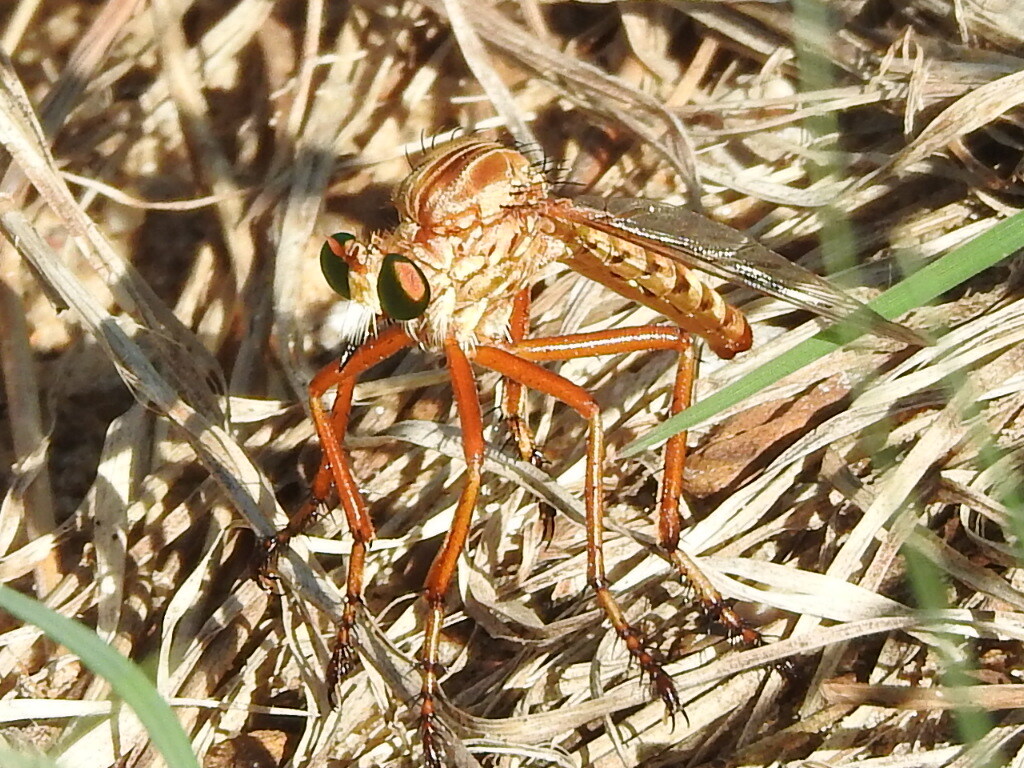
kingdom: Animalia
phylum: Arthropoda
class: Insecta
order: Diptera
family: Asilidae
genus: Diogmites
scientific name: Diogmites angustipennis
